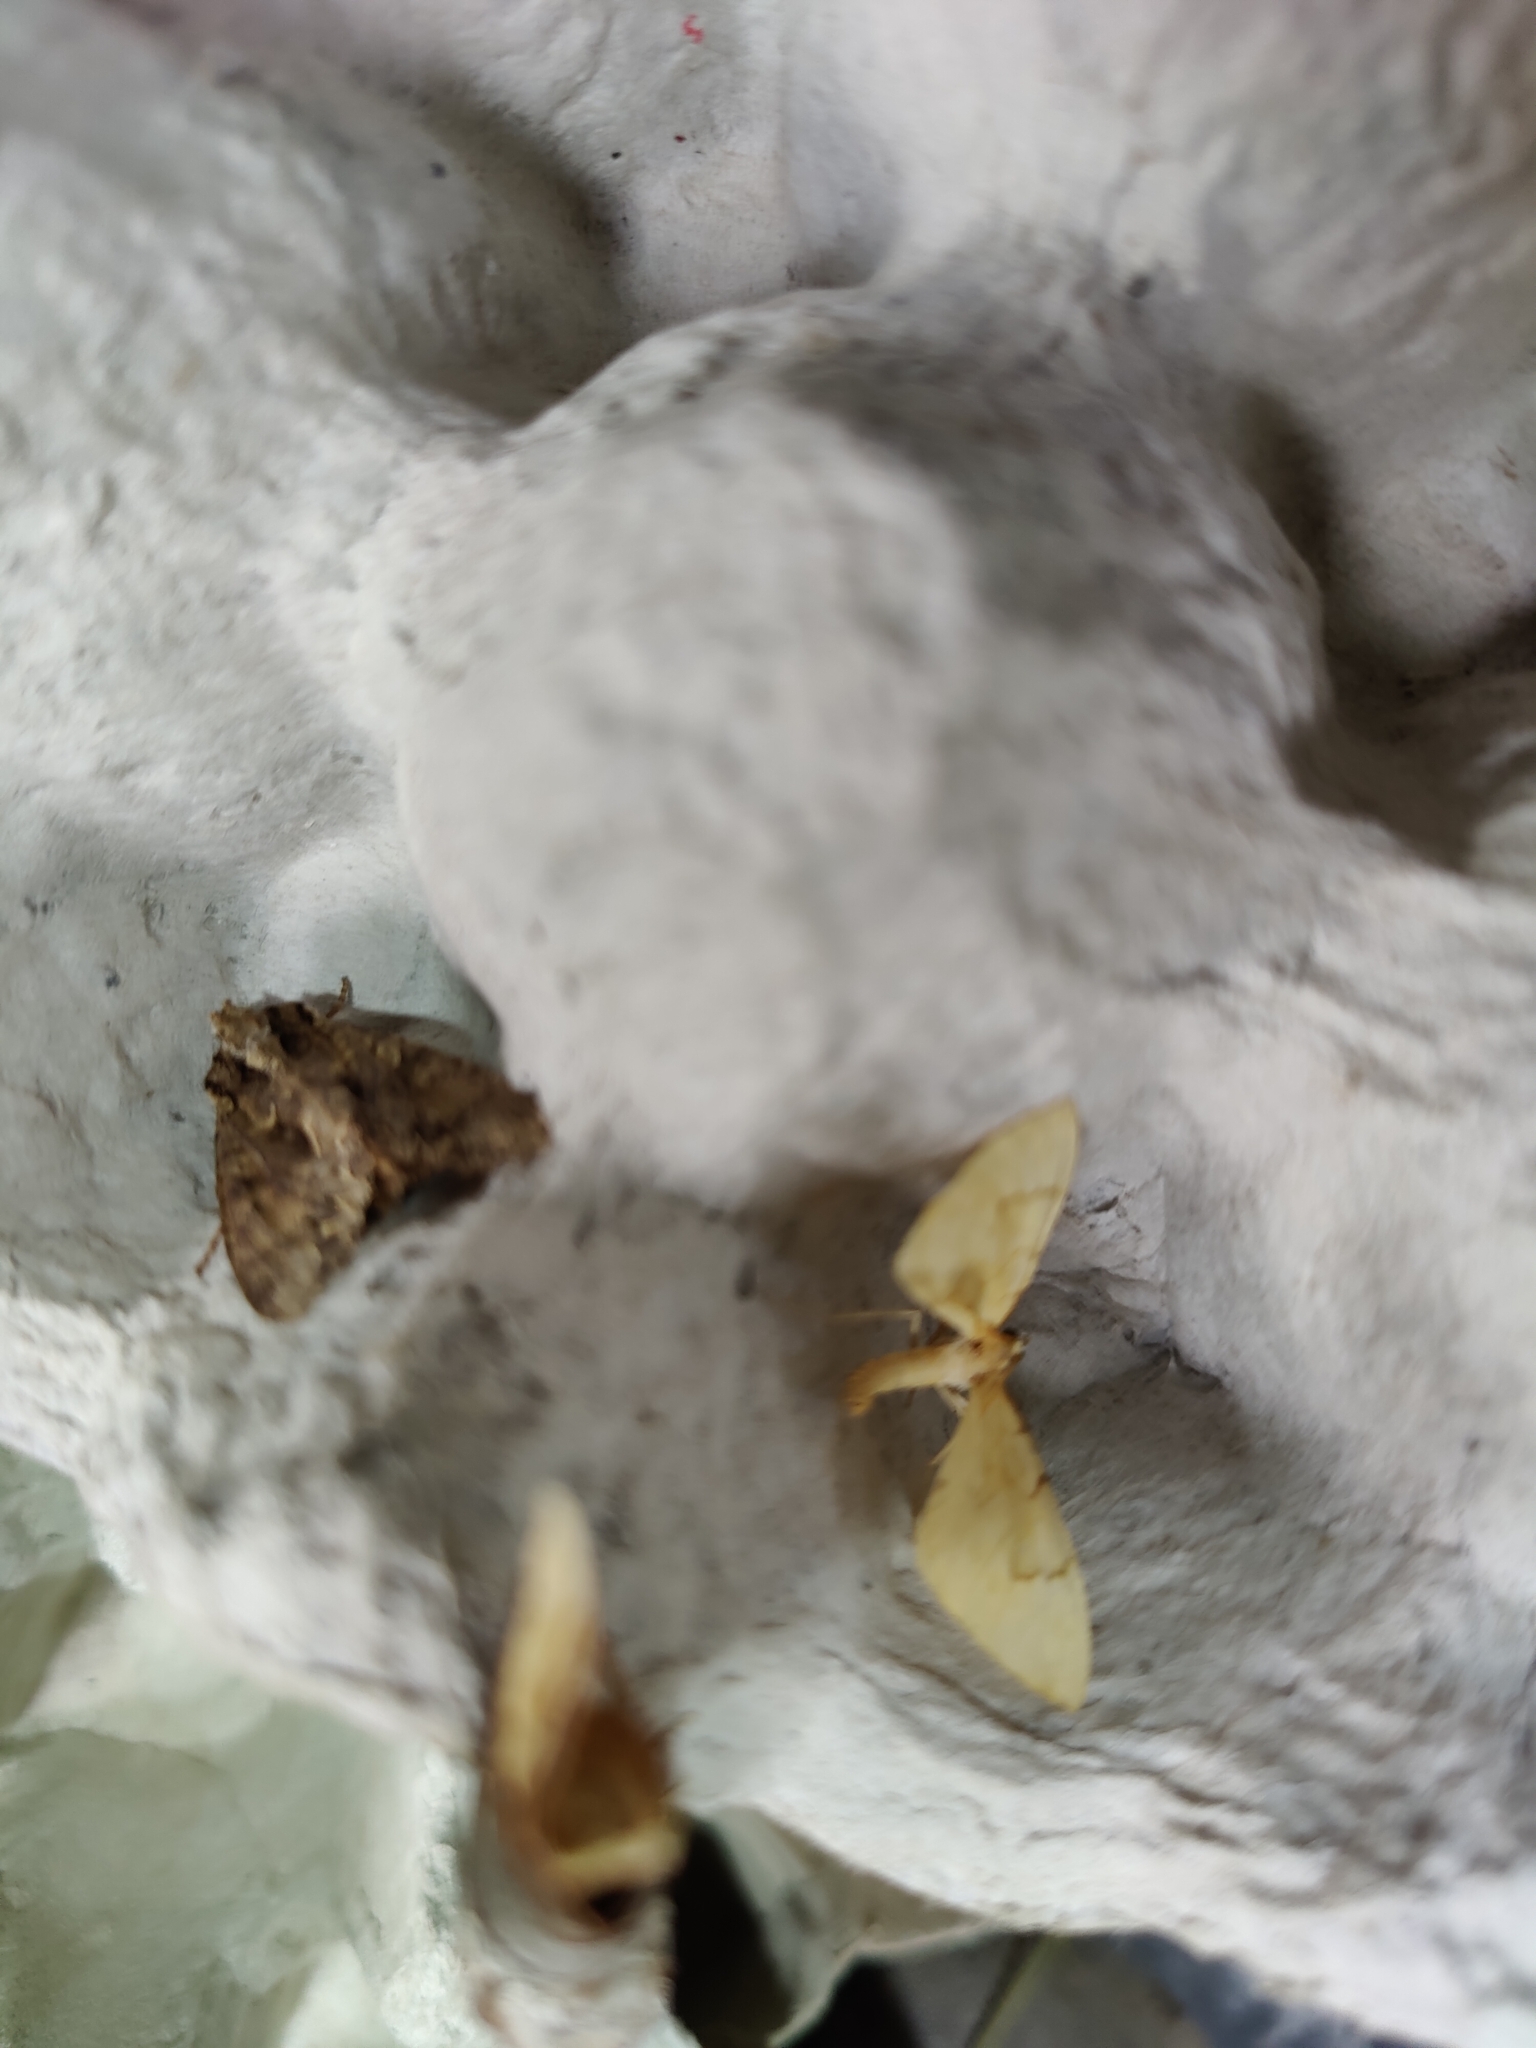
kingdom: Animalia
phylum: Arthropoda
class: Insecta
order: Lepidoptera
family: Geometridae
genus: Eulithis
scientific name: Eulithis pyraliata
